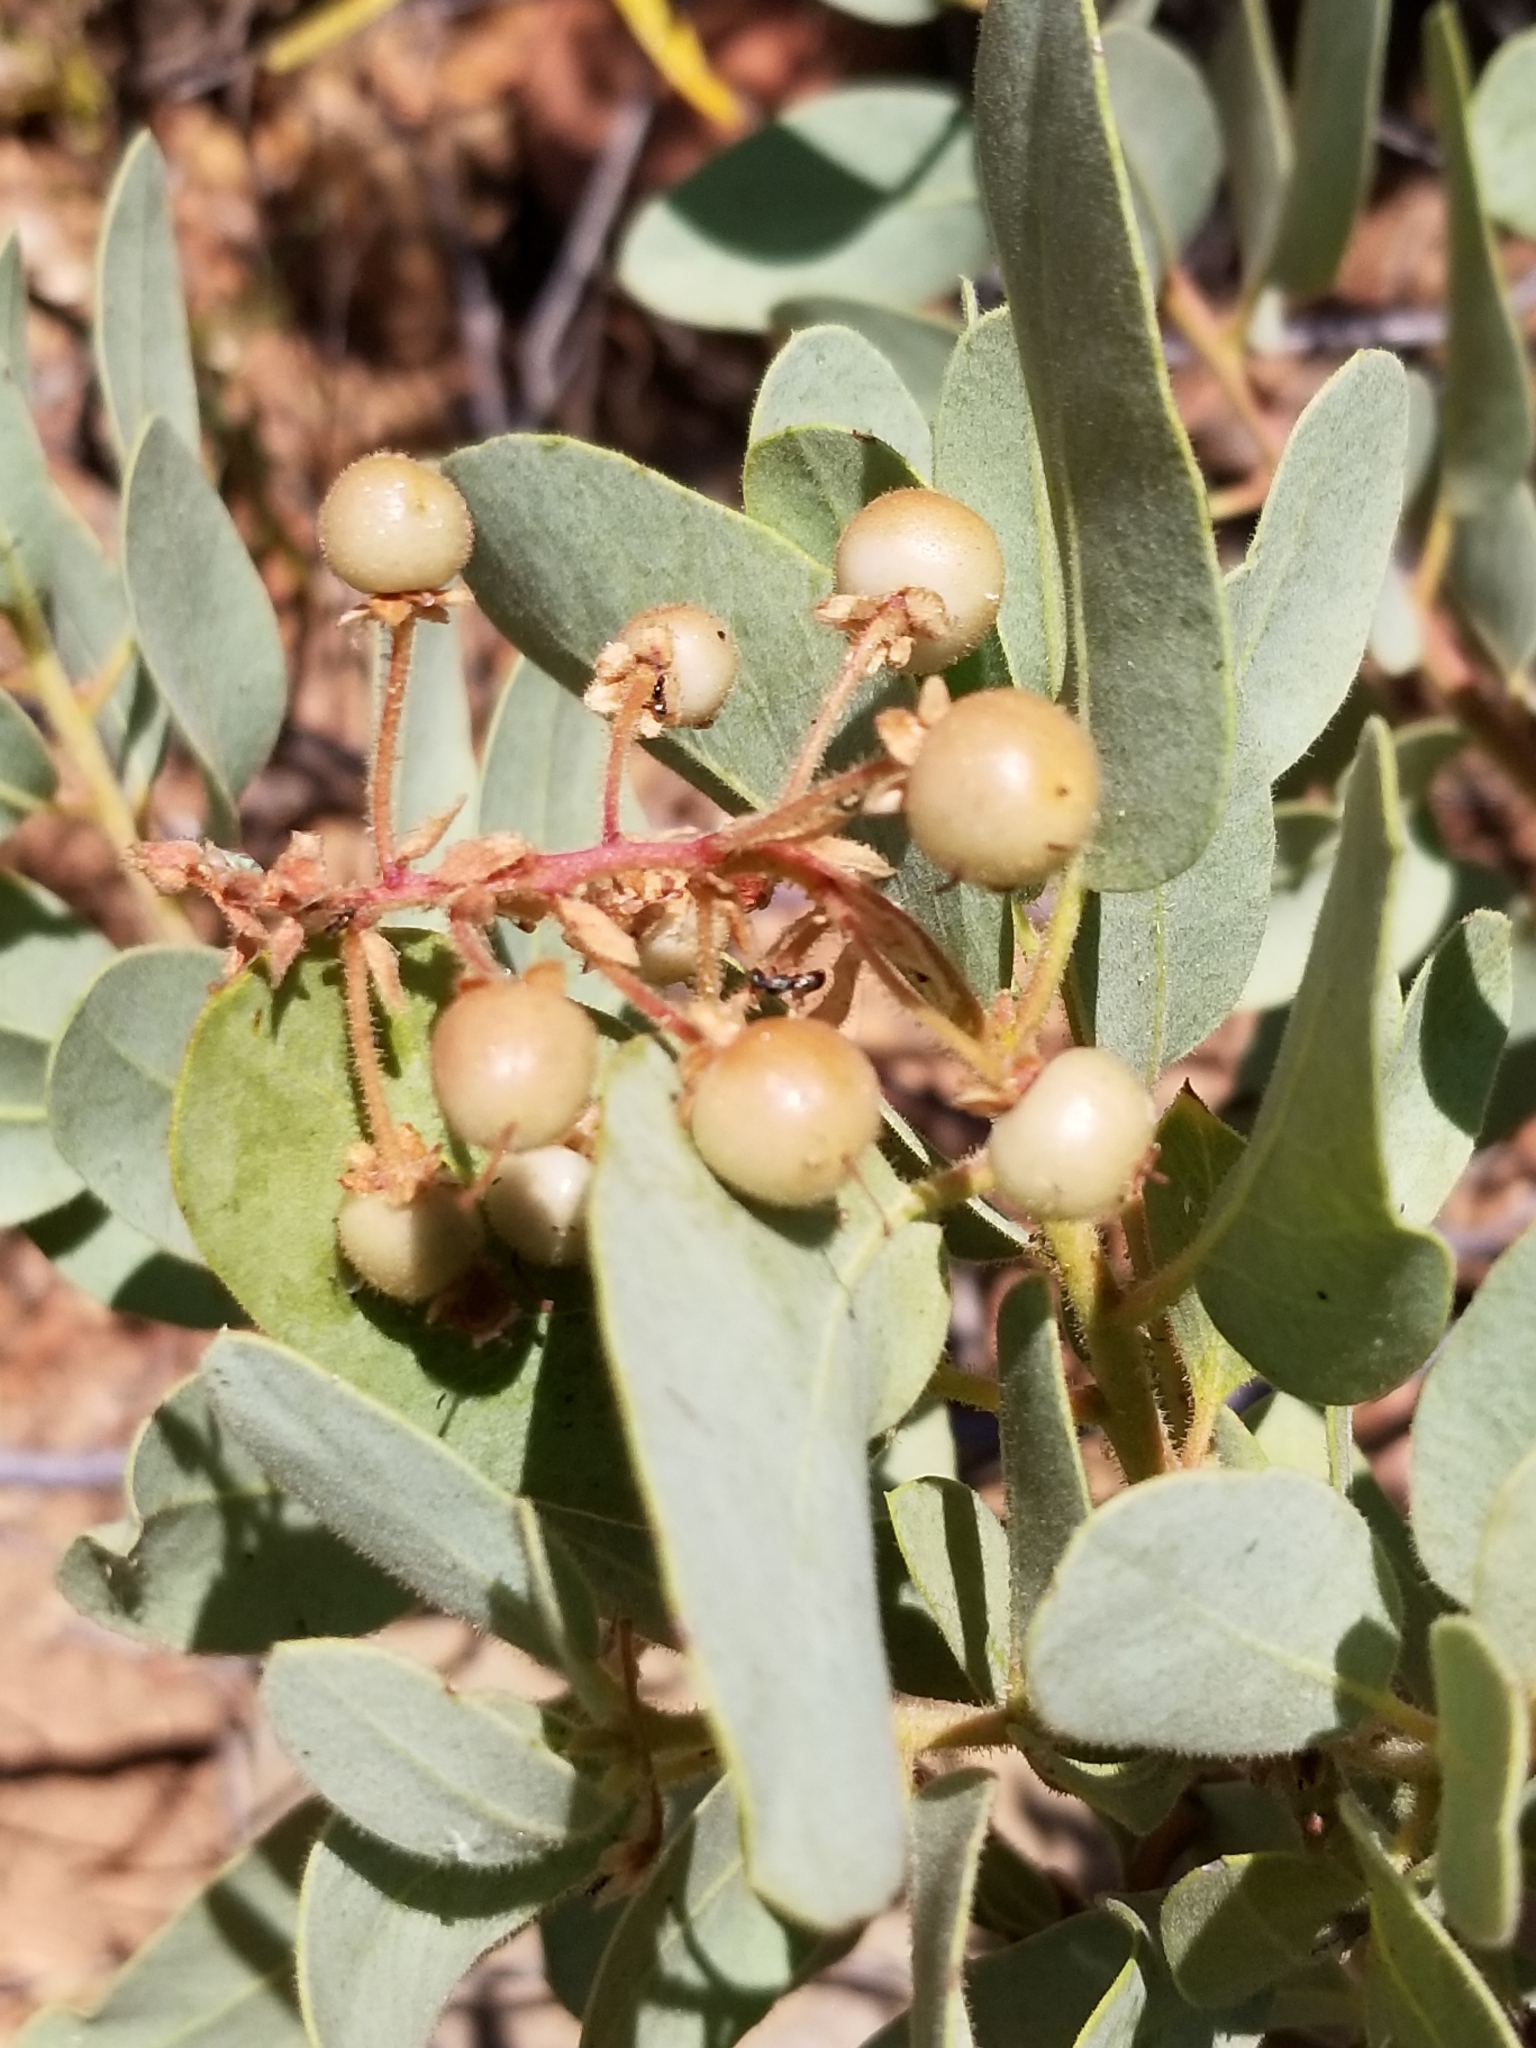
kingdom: Plantae
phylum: Tracheophyta
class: Magnoliopsida
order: Ericales
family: Ericaceae
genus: Arctostaphylos
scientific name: Arctostaphylos pringlei
